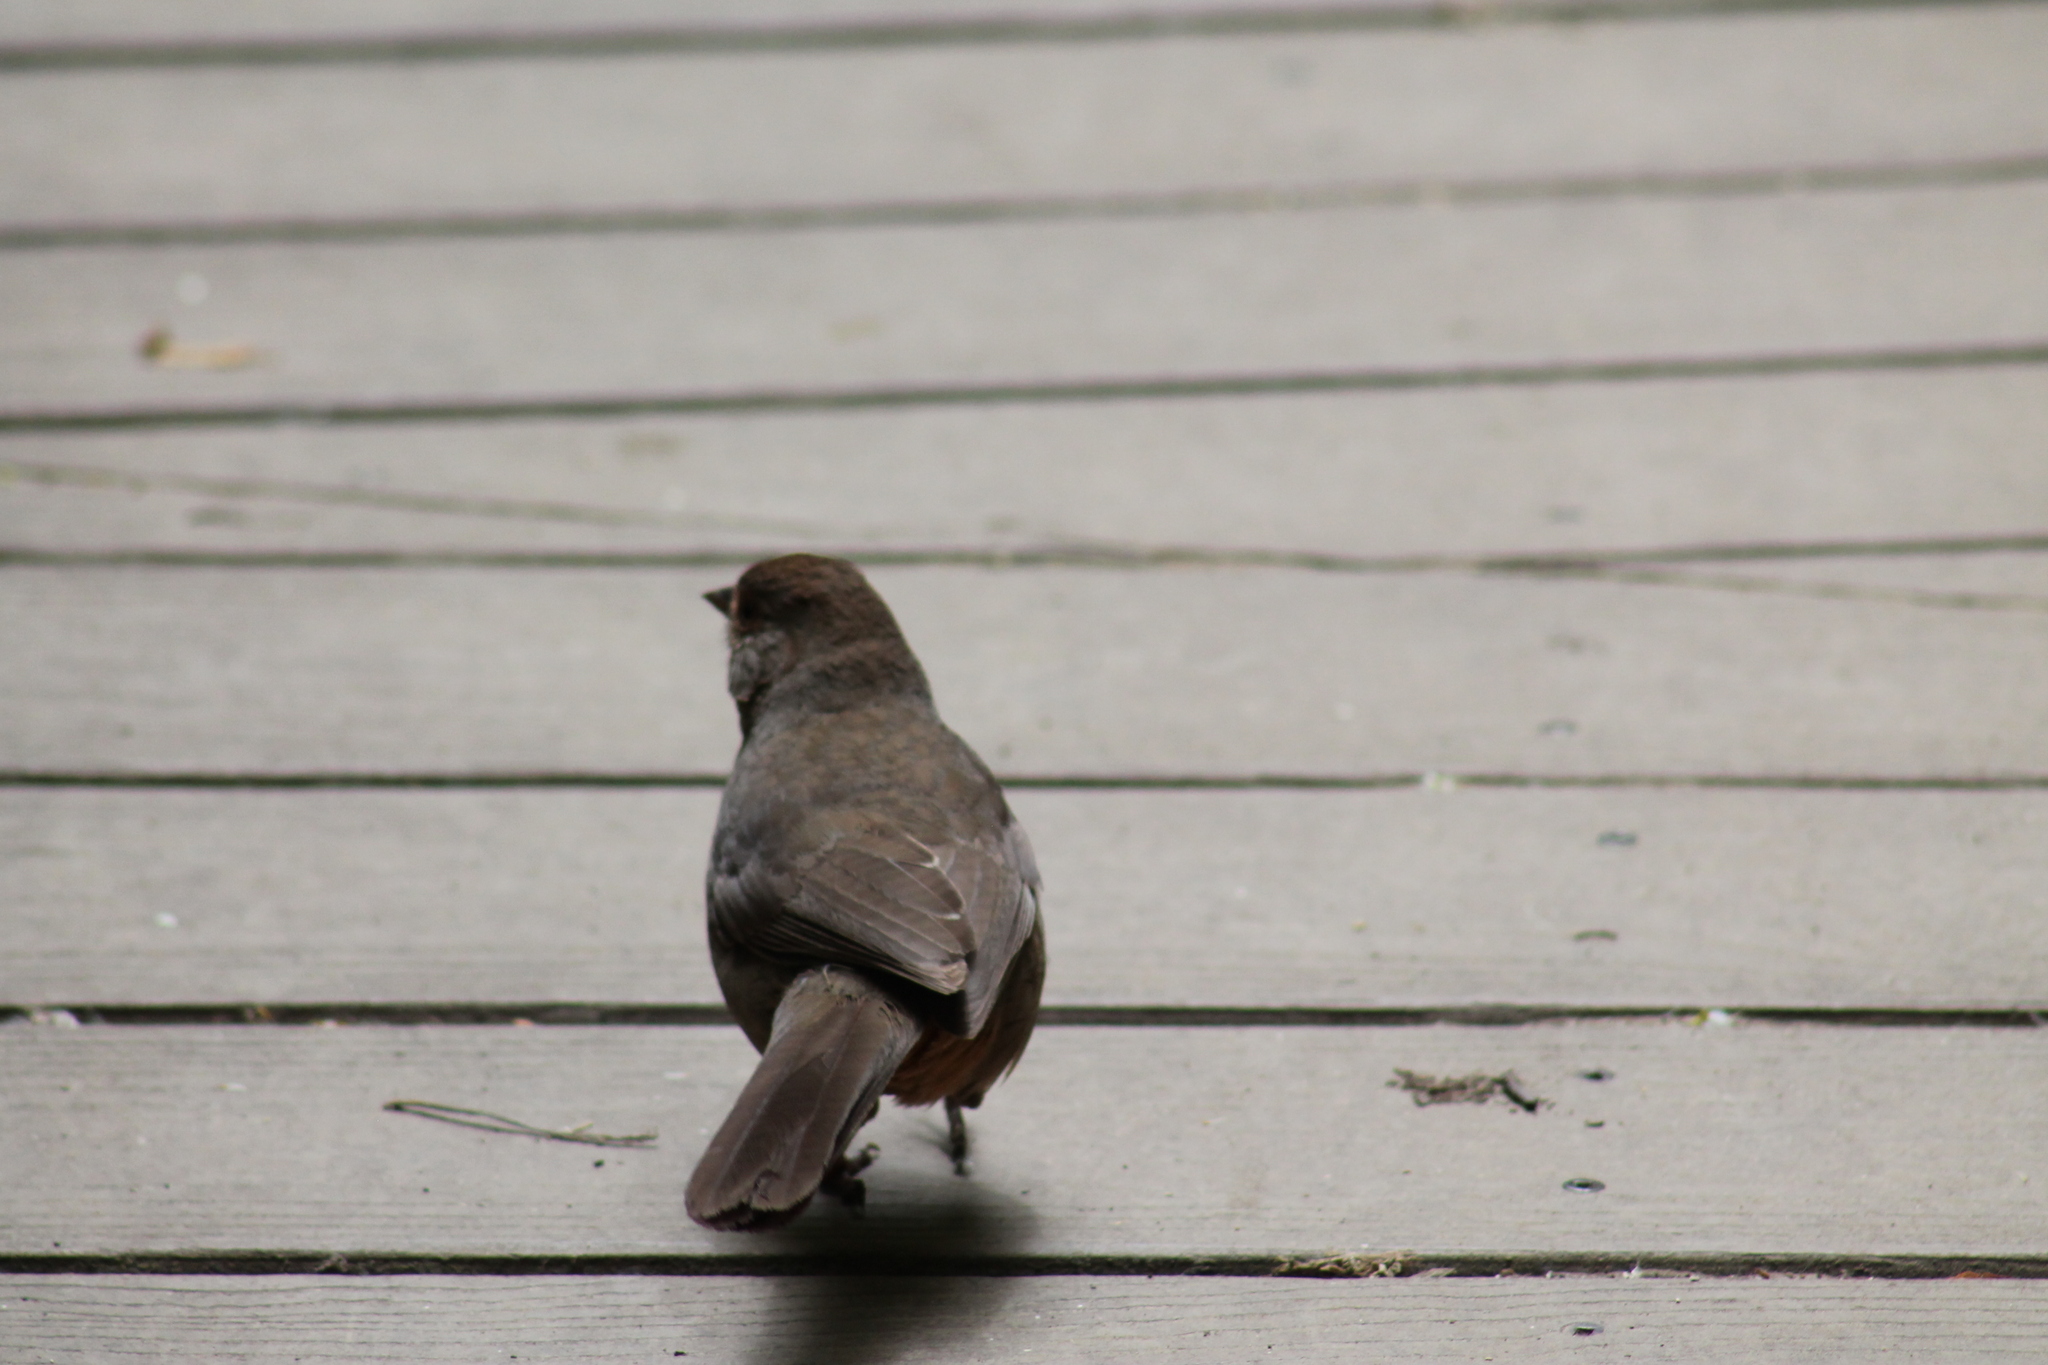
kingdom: Animalia
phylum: Chordata
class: Aves
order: Passeriformes
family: Passerellidae
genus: Melozone
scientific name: Melozone crissalis
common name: California towhee
